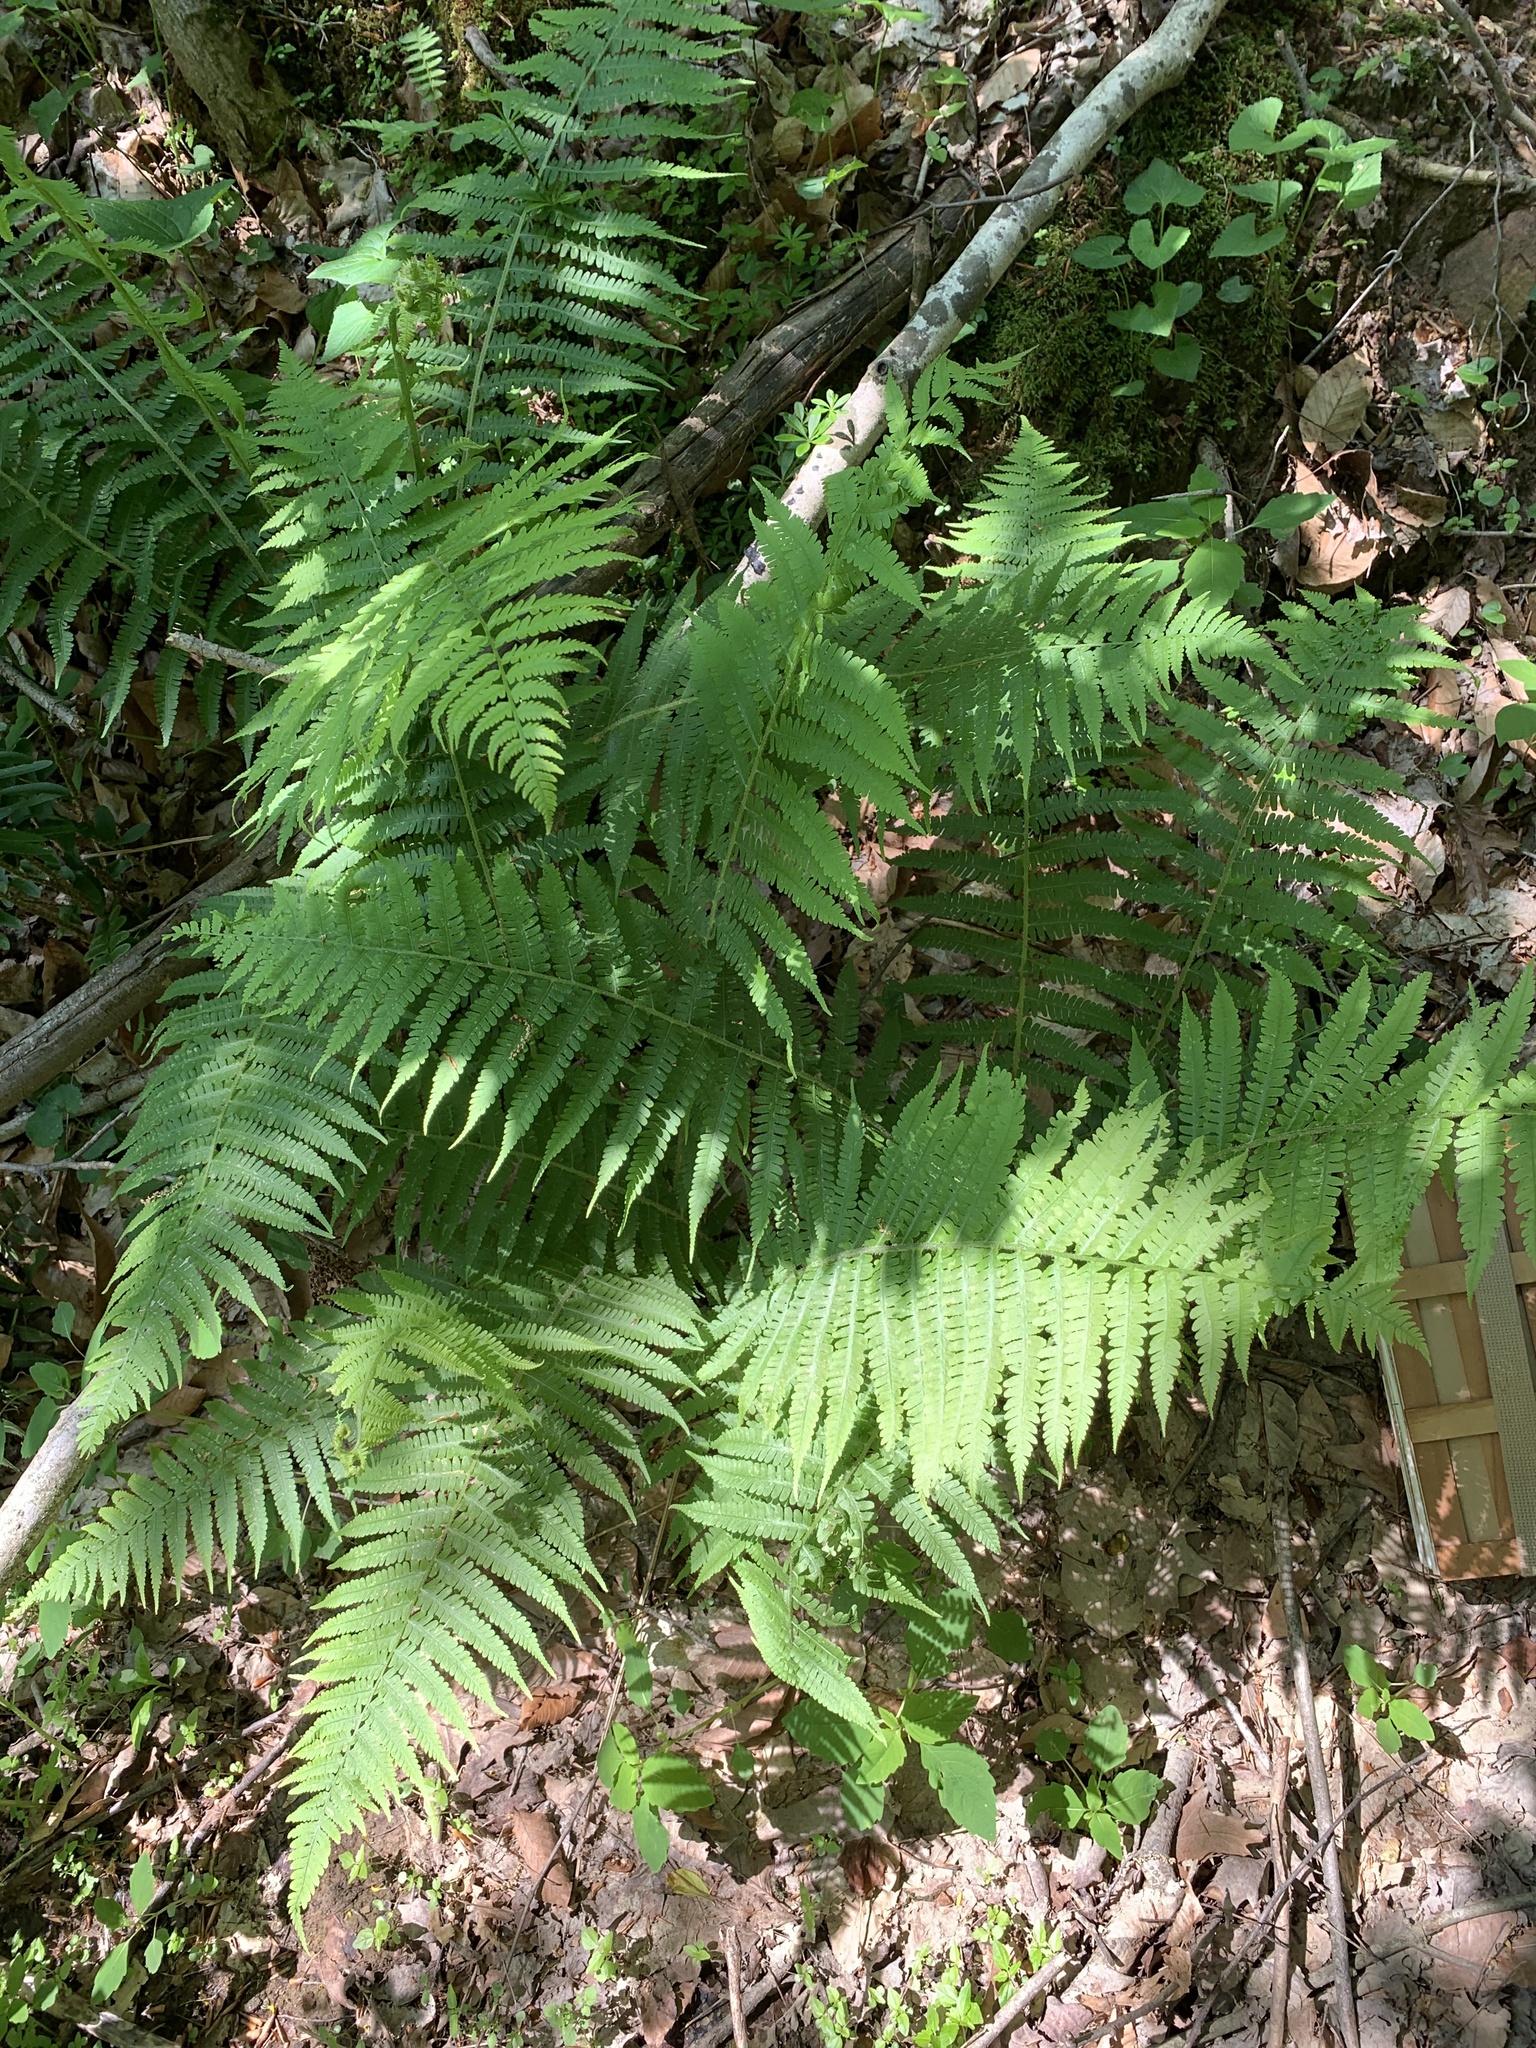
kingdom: Plantae
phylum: Tracheophyta
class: Polypodiopsida
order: Polypodiales
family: Athyriaceae
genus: Deparia
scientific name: Deparia acrostichoides
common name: Silver false spleenwort
